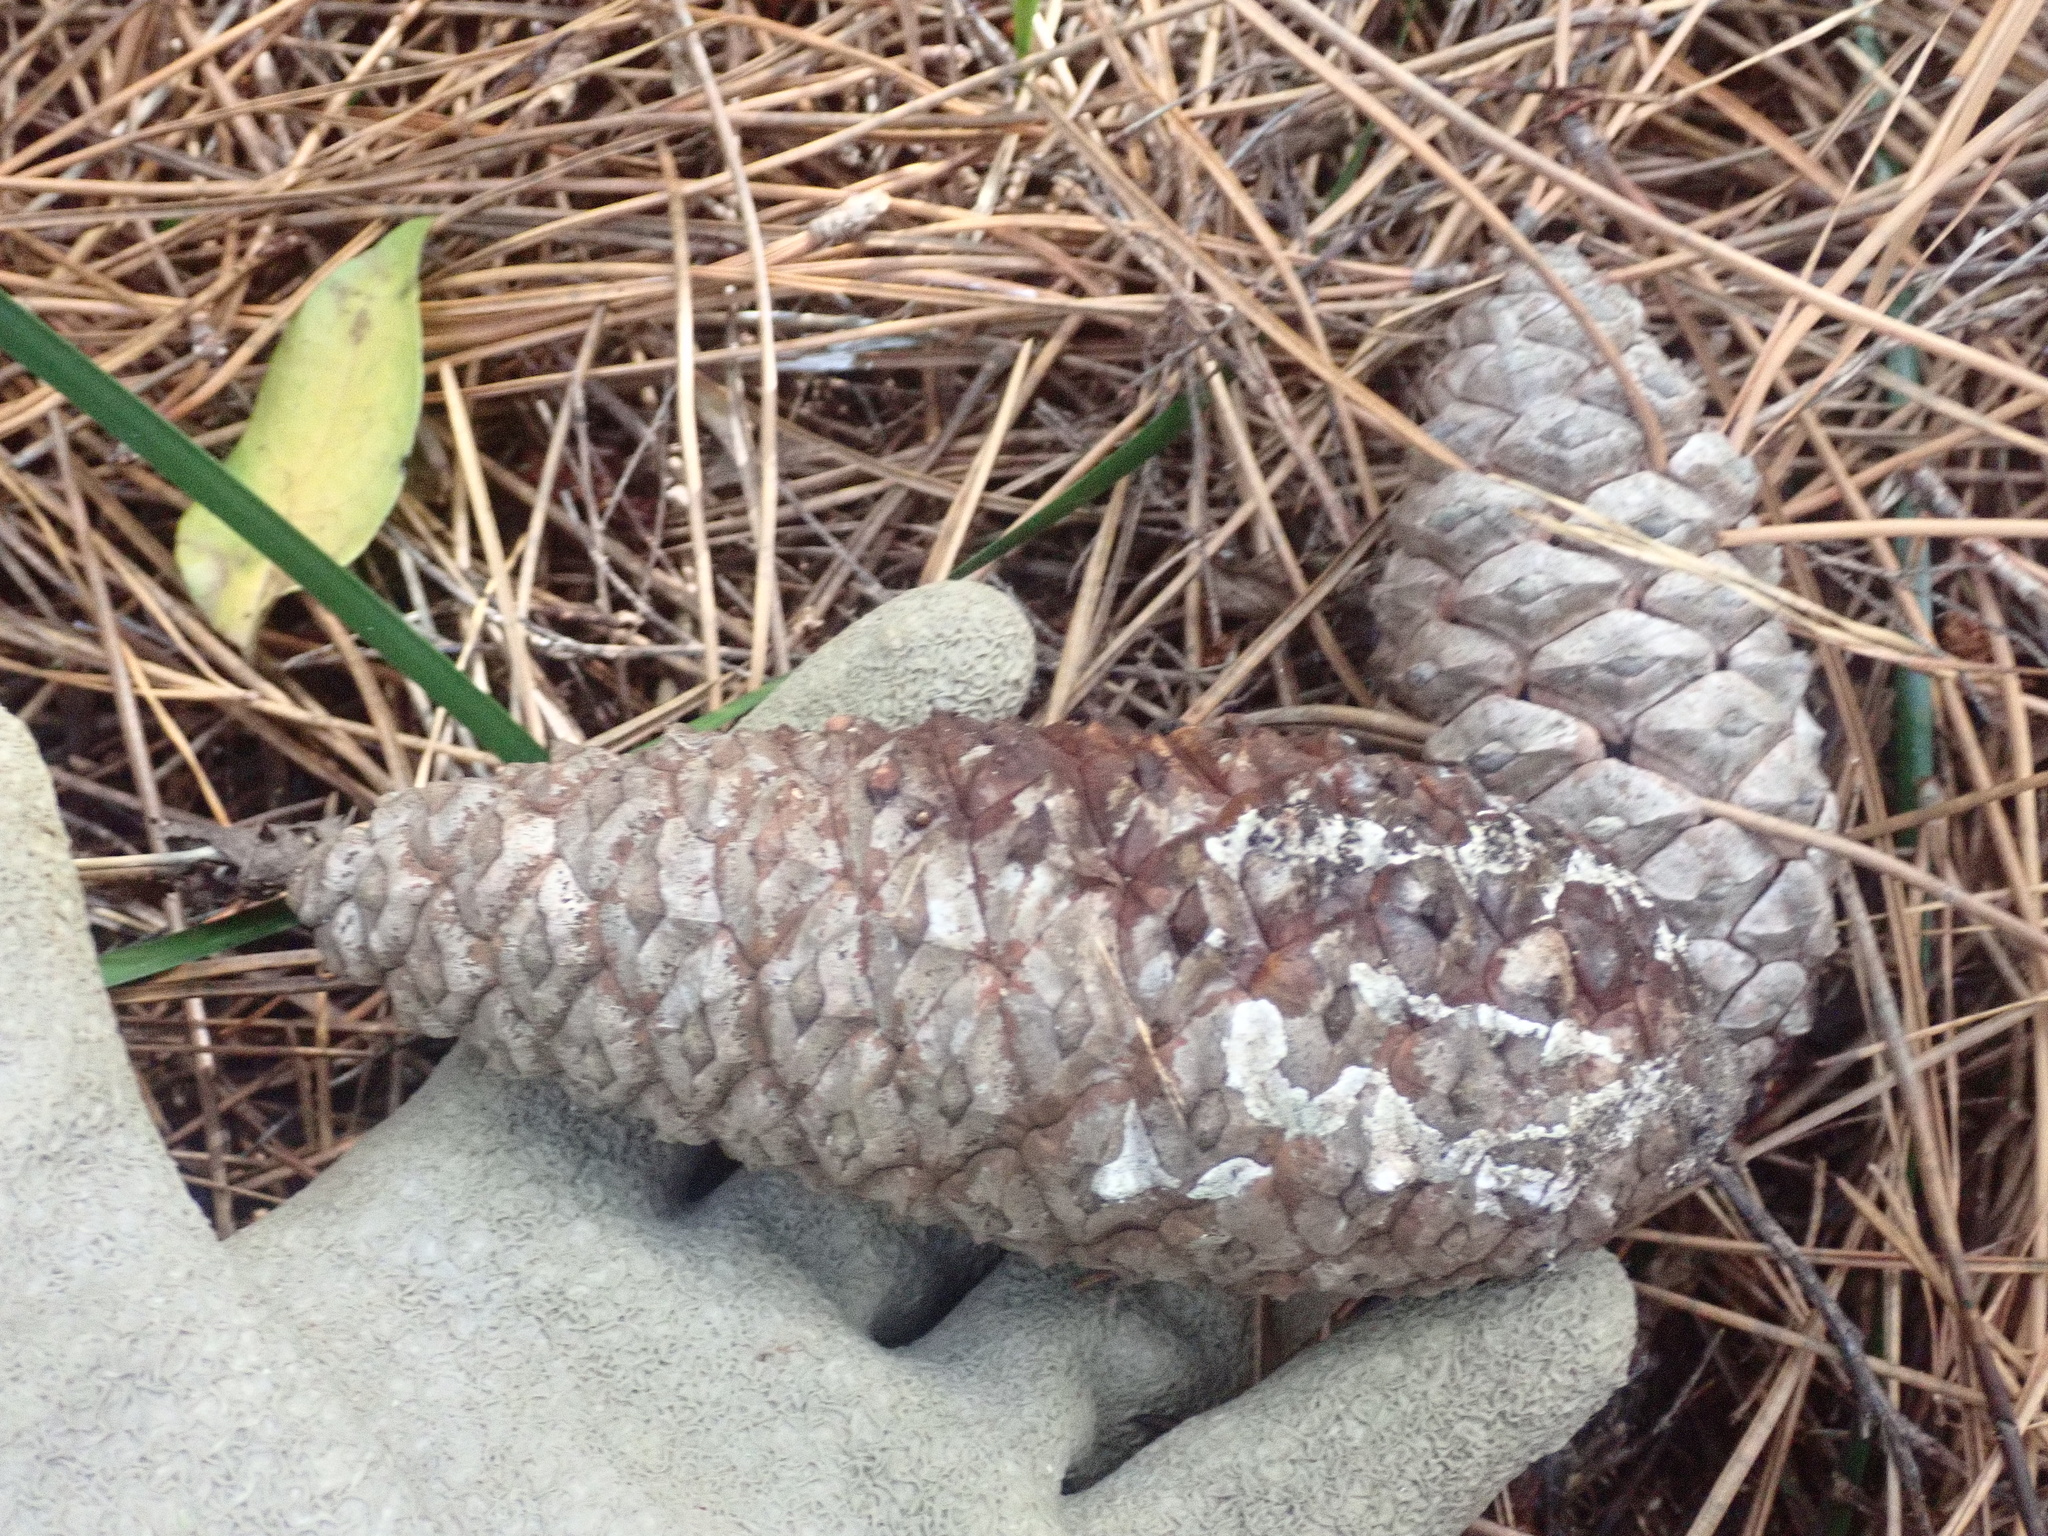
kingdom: Plantae
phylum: Tracheophyta
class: Pinopsida
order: Pinales
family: Pinaceae
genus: Pinus
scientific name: Pinus pinaster
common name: Maritime pine
